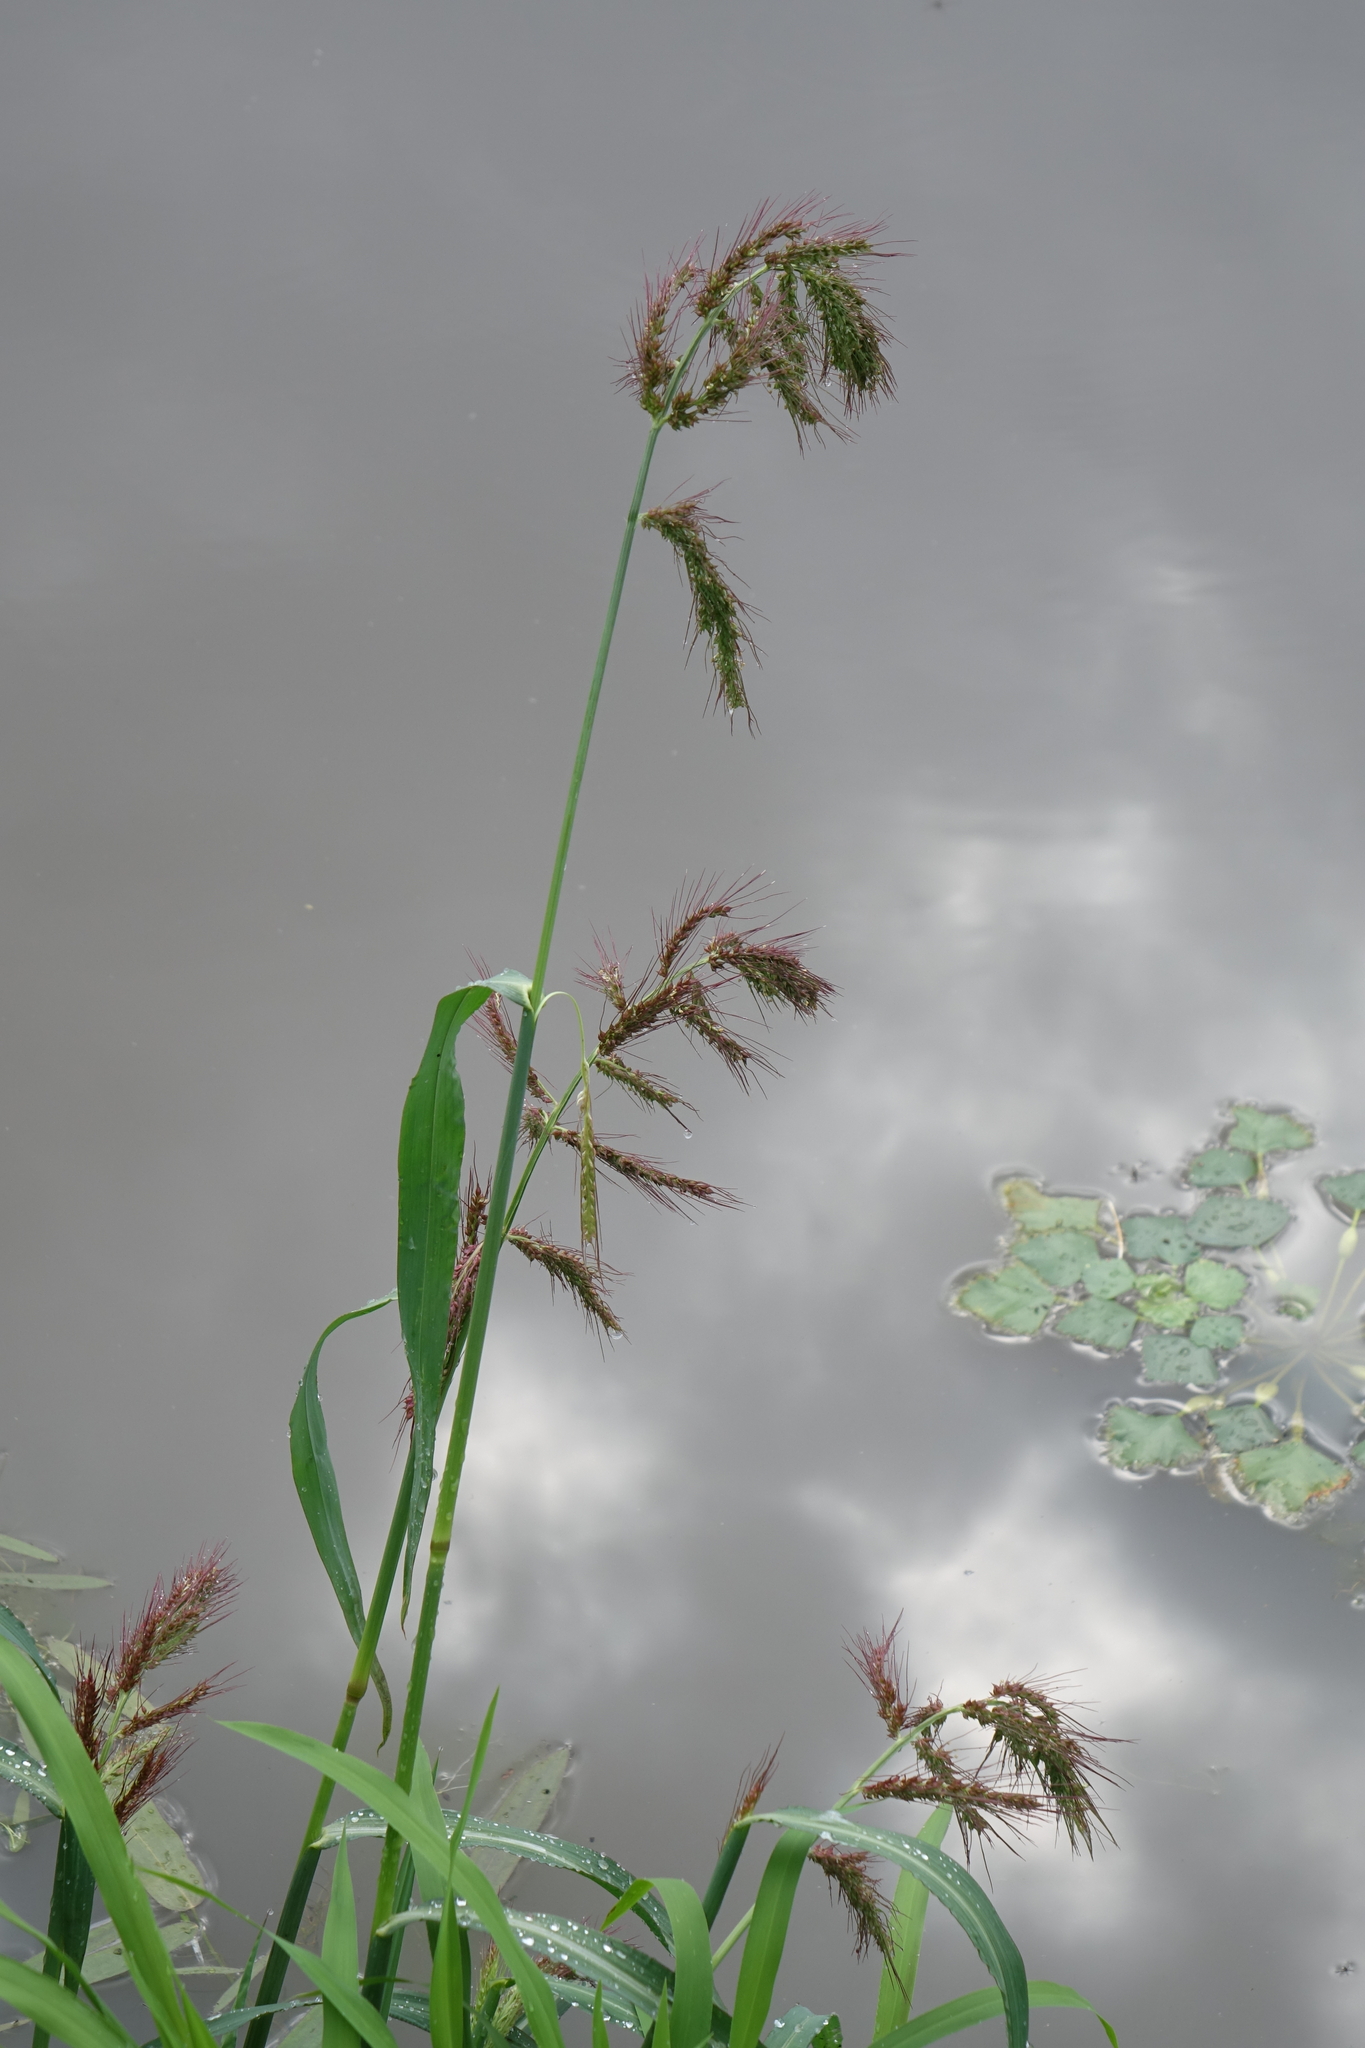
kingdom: Plantae
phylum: Tracheophyta
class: Liliopsida
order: Poales
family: Poaceae
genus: Echinochloa
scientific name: Echinochloa crus-galli
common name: Cockspur
